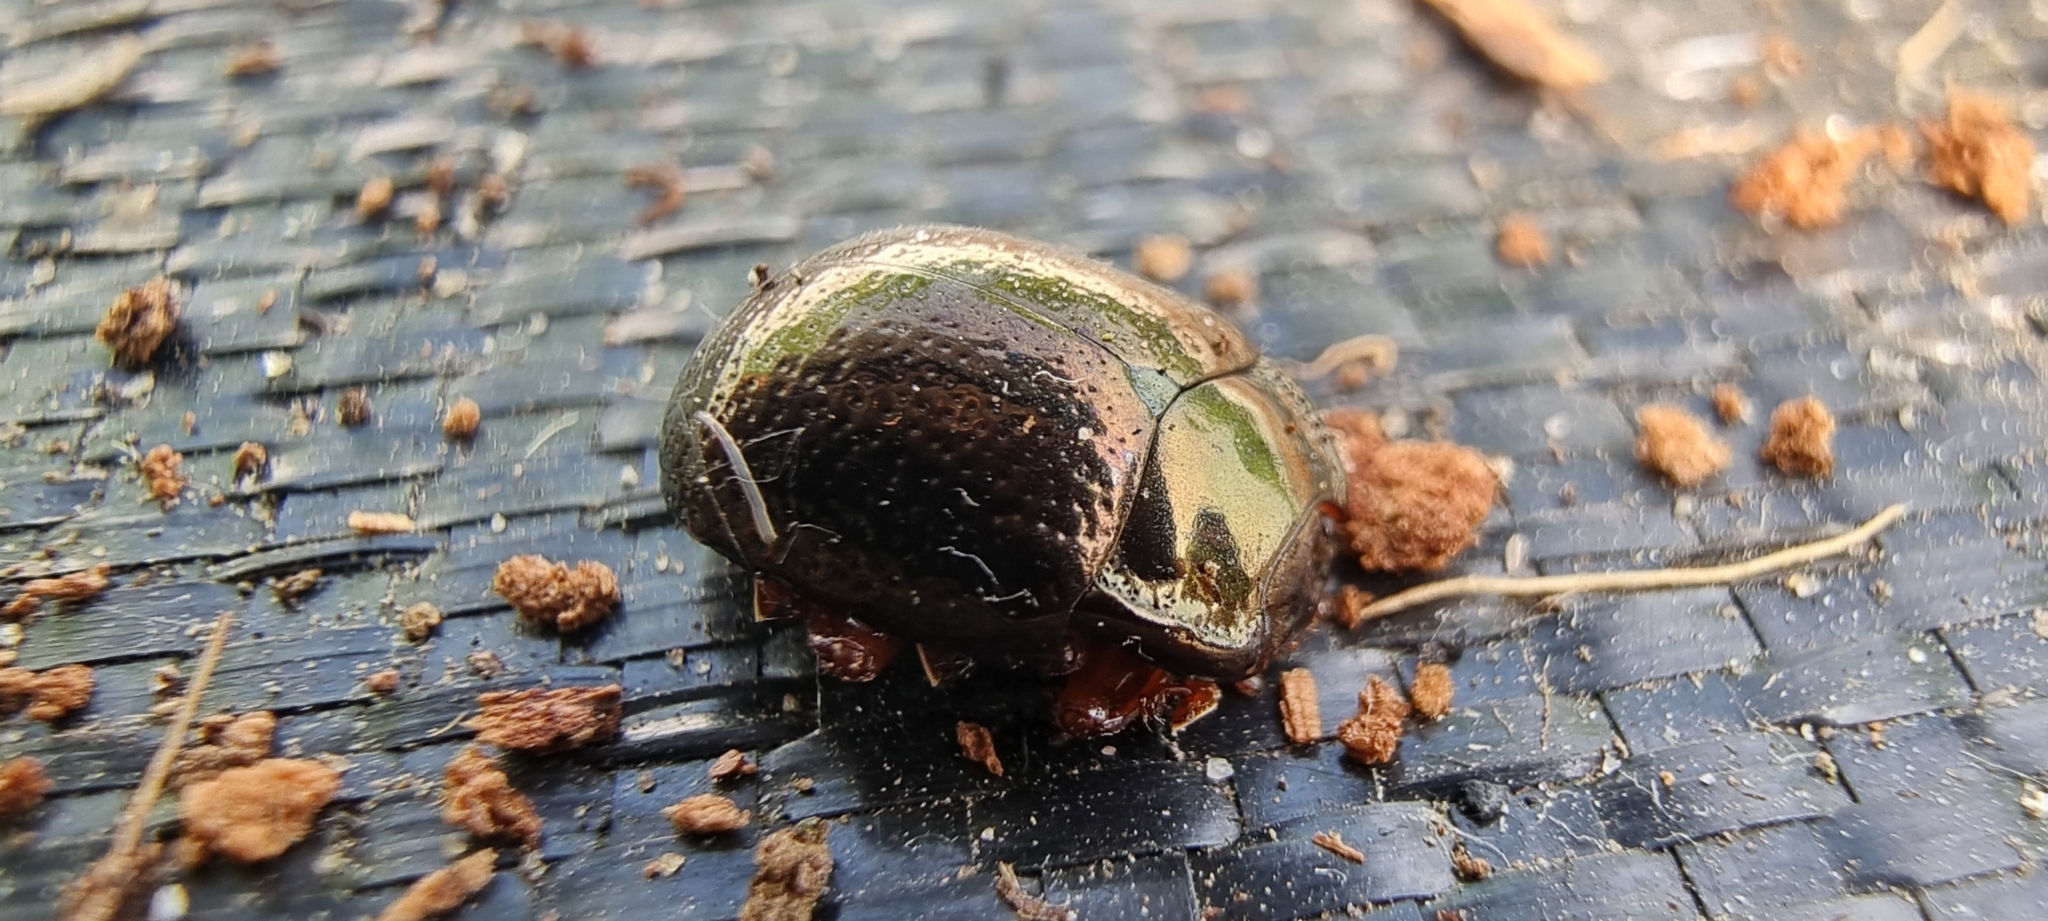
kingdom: Animalia
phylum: Arthropoda
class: Insecta
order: Coleoptera
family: Chrysomelidae
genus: Chrysolina
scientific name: Chrysolina bankii
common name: Leaf beetle
